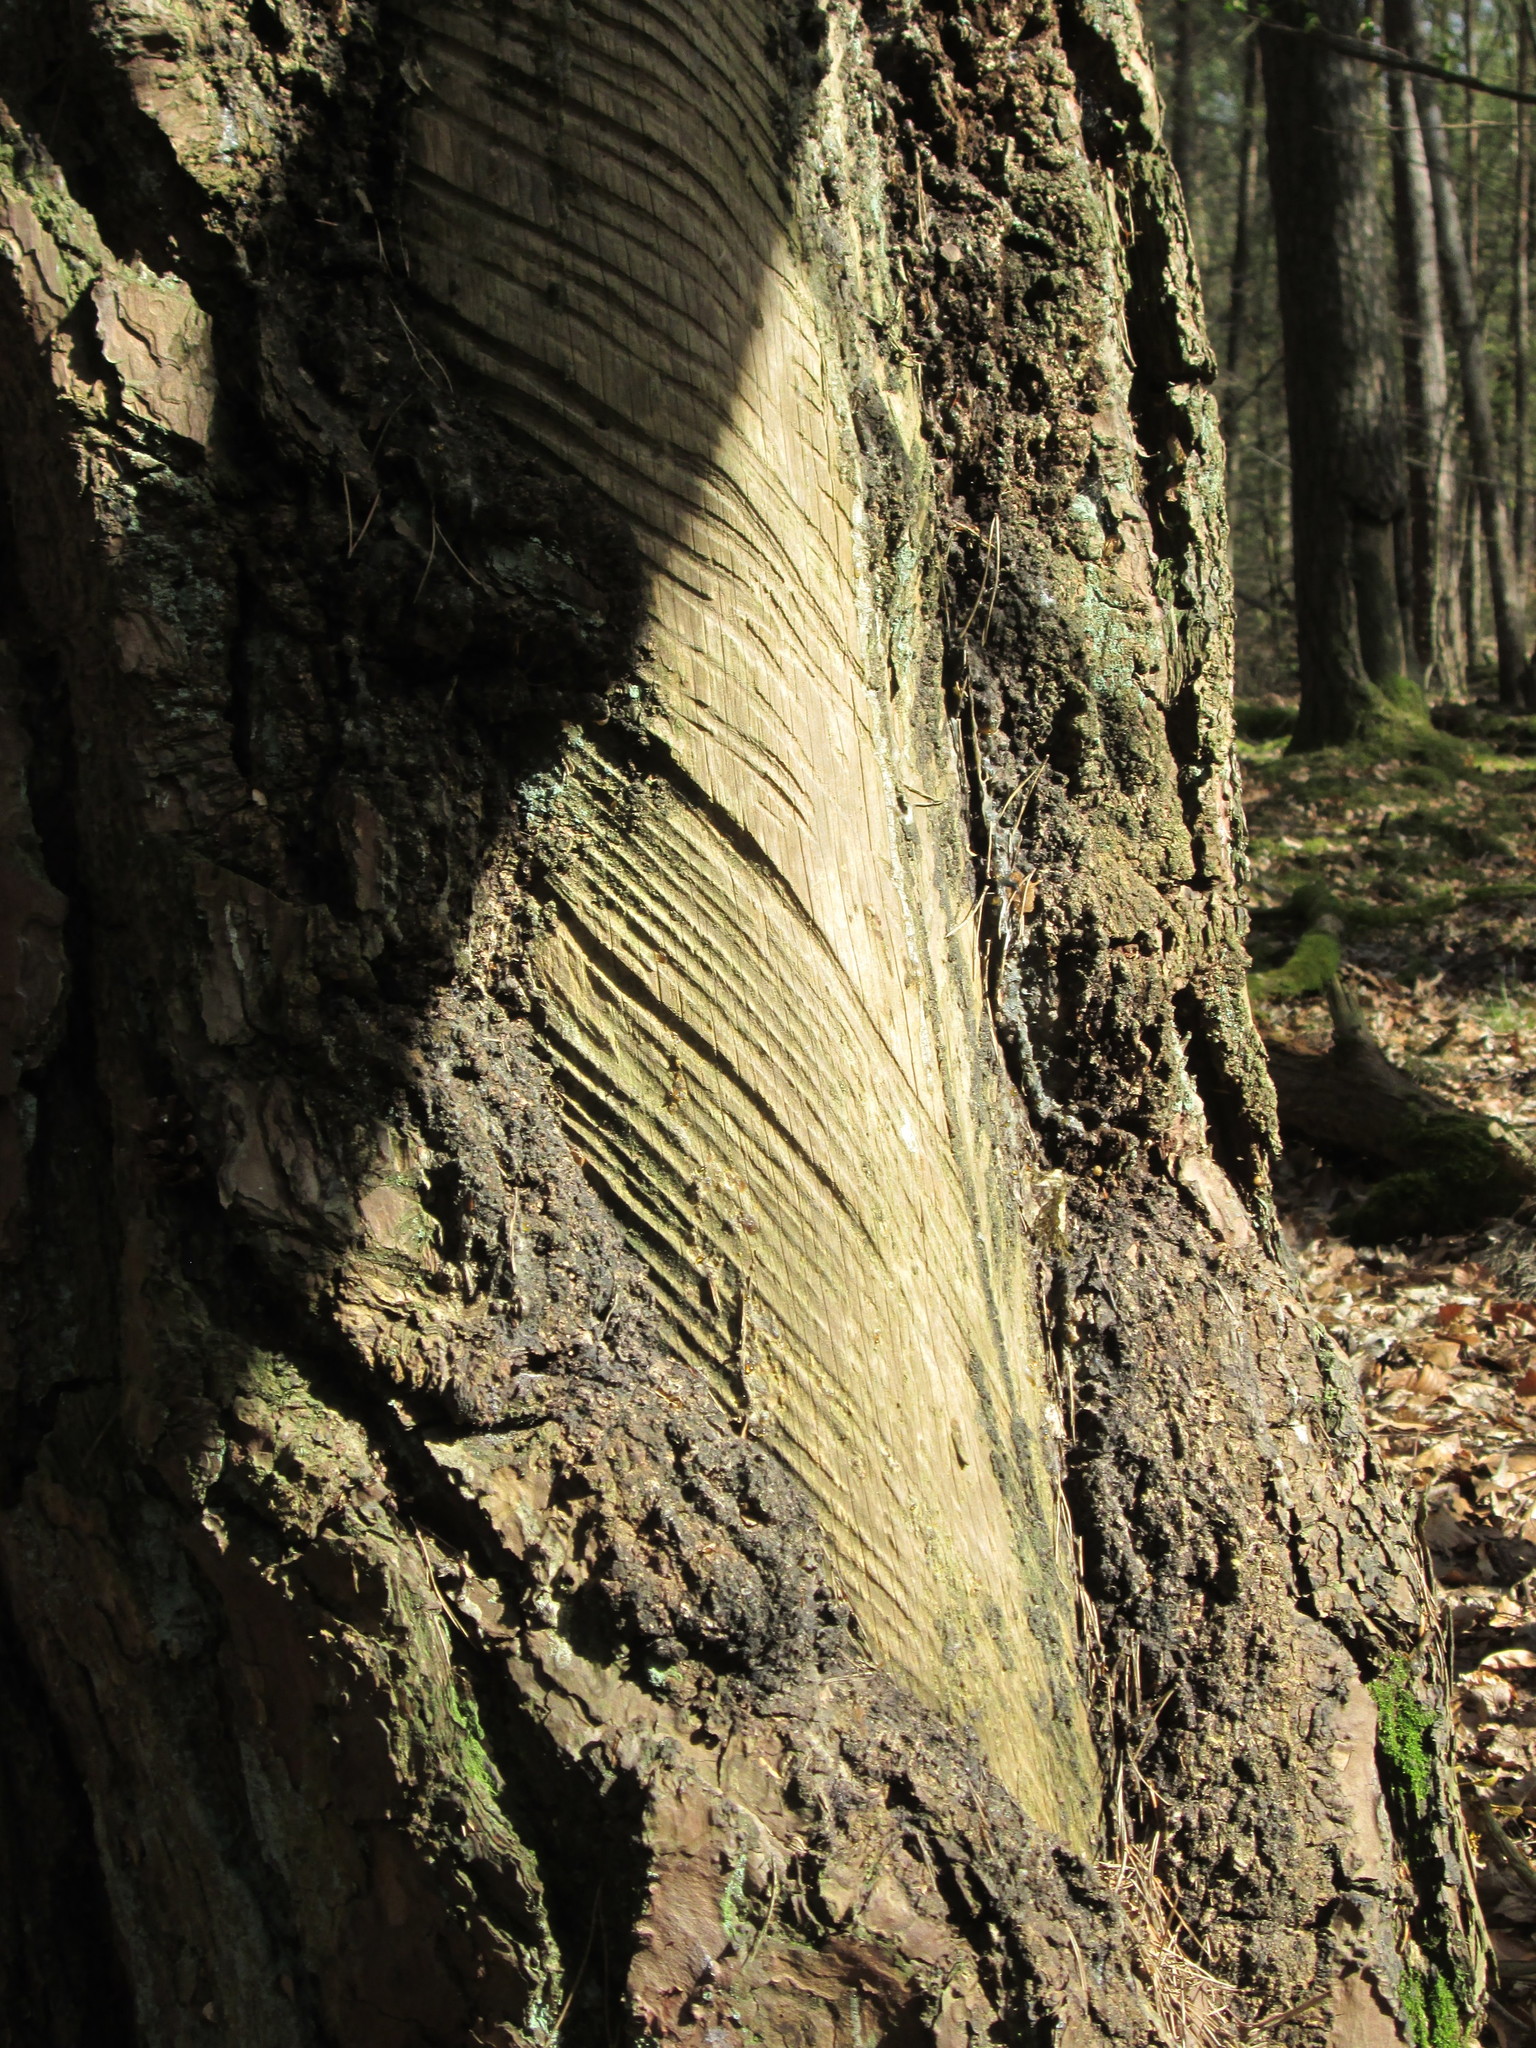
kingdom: Plantae
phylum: Tracheophyta
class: Pinopsida
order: Pinales
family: Pinaceae
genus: Pinus
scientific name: Pinus sylvestris
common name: Scots pine
